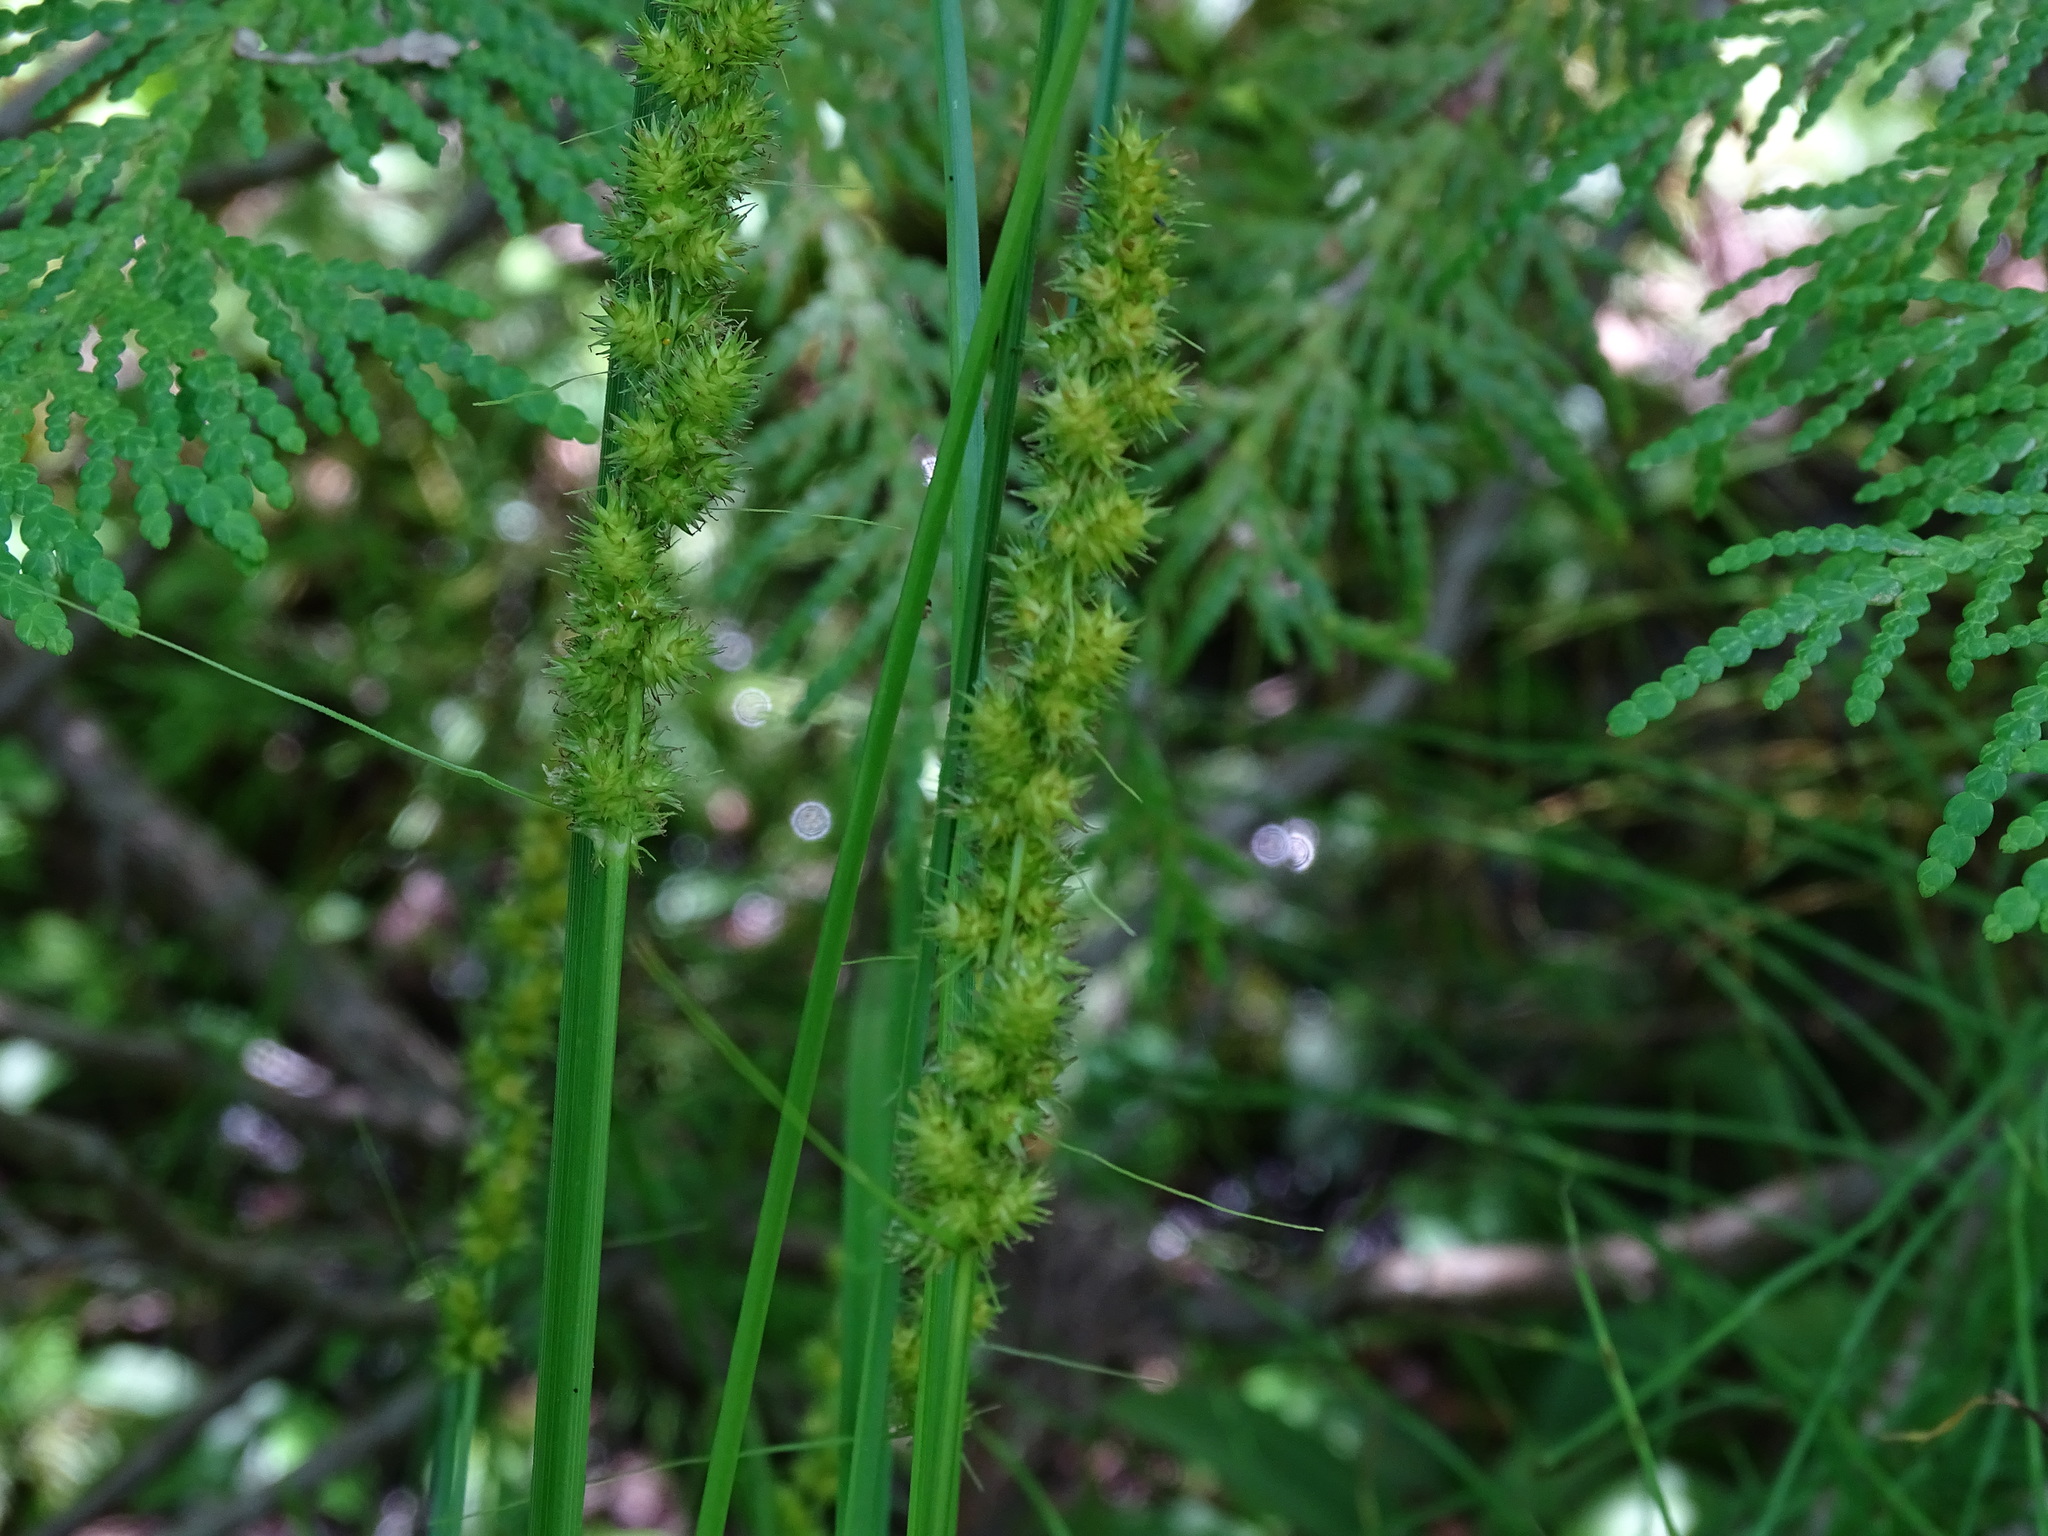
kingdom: Plantae
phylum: Tracheophyta
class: Liliopsida
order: Poales
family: Cyperaceae
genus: Carex
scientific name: Carex vulpinoidea
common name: American fox-sedge
